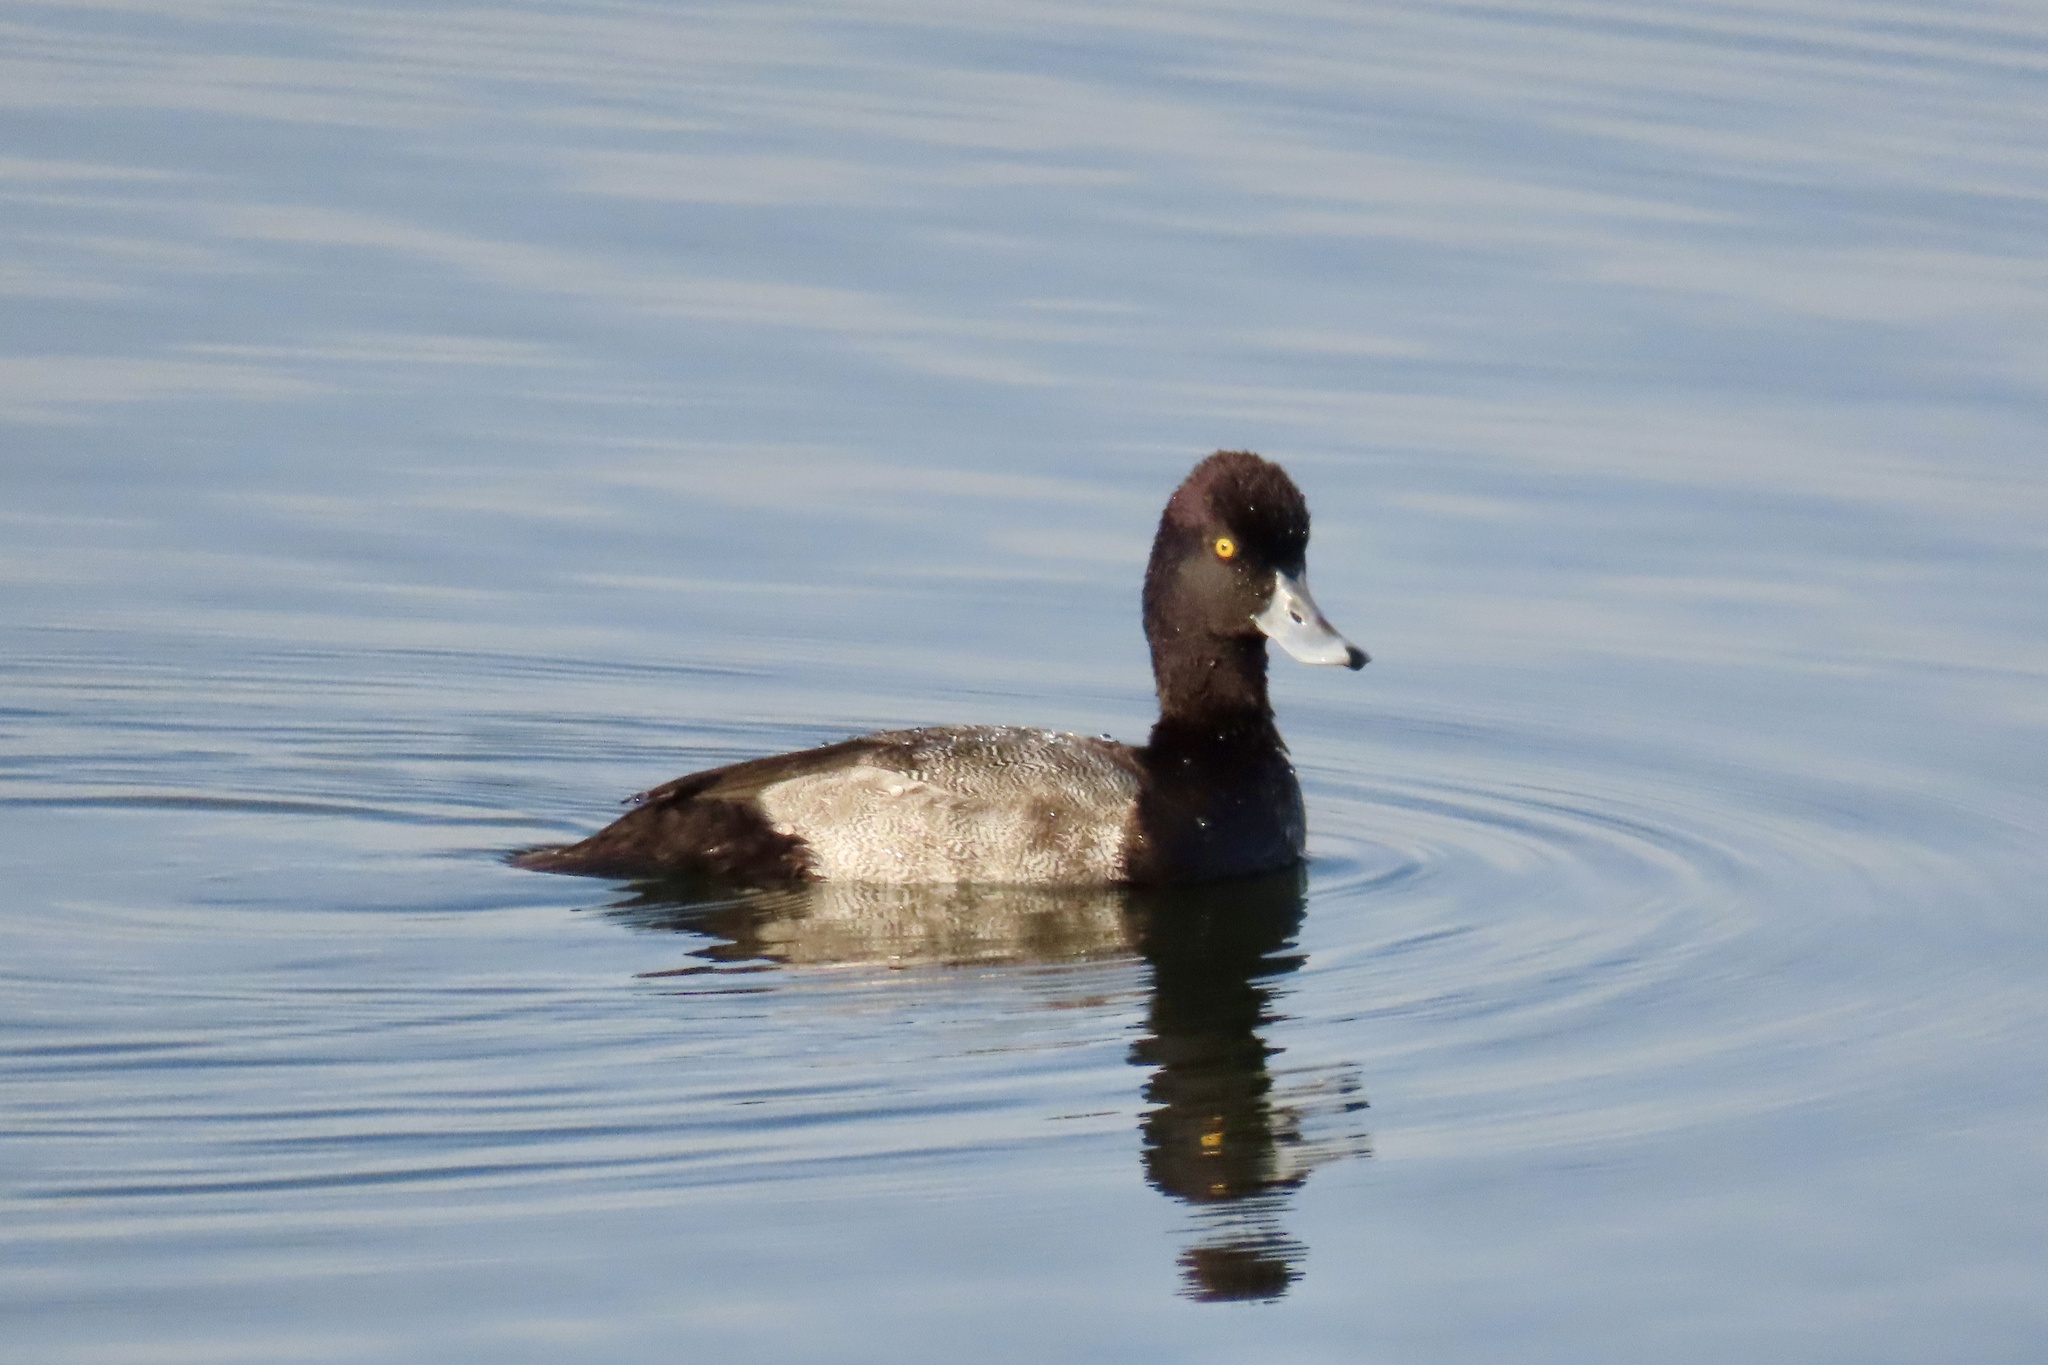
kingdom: Animalia
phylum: Chordata
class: Aves
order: Anseriformes
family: Anatidae
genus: Aythya
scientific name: Aythya affinis
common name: Lesser scaup
